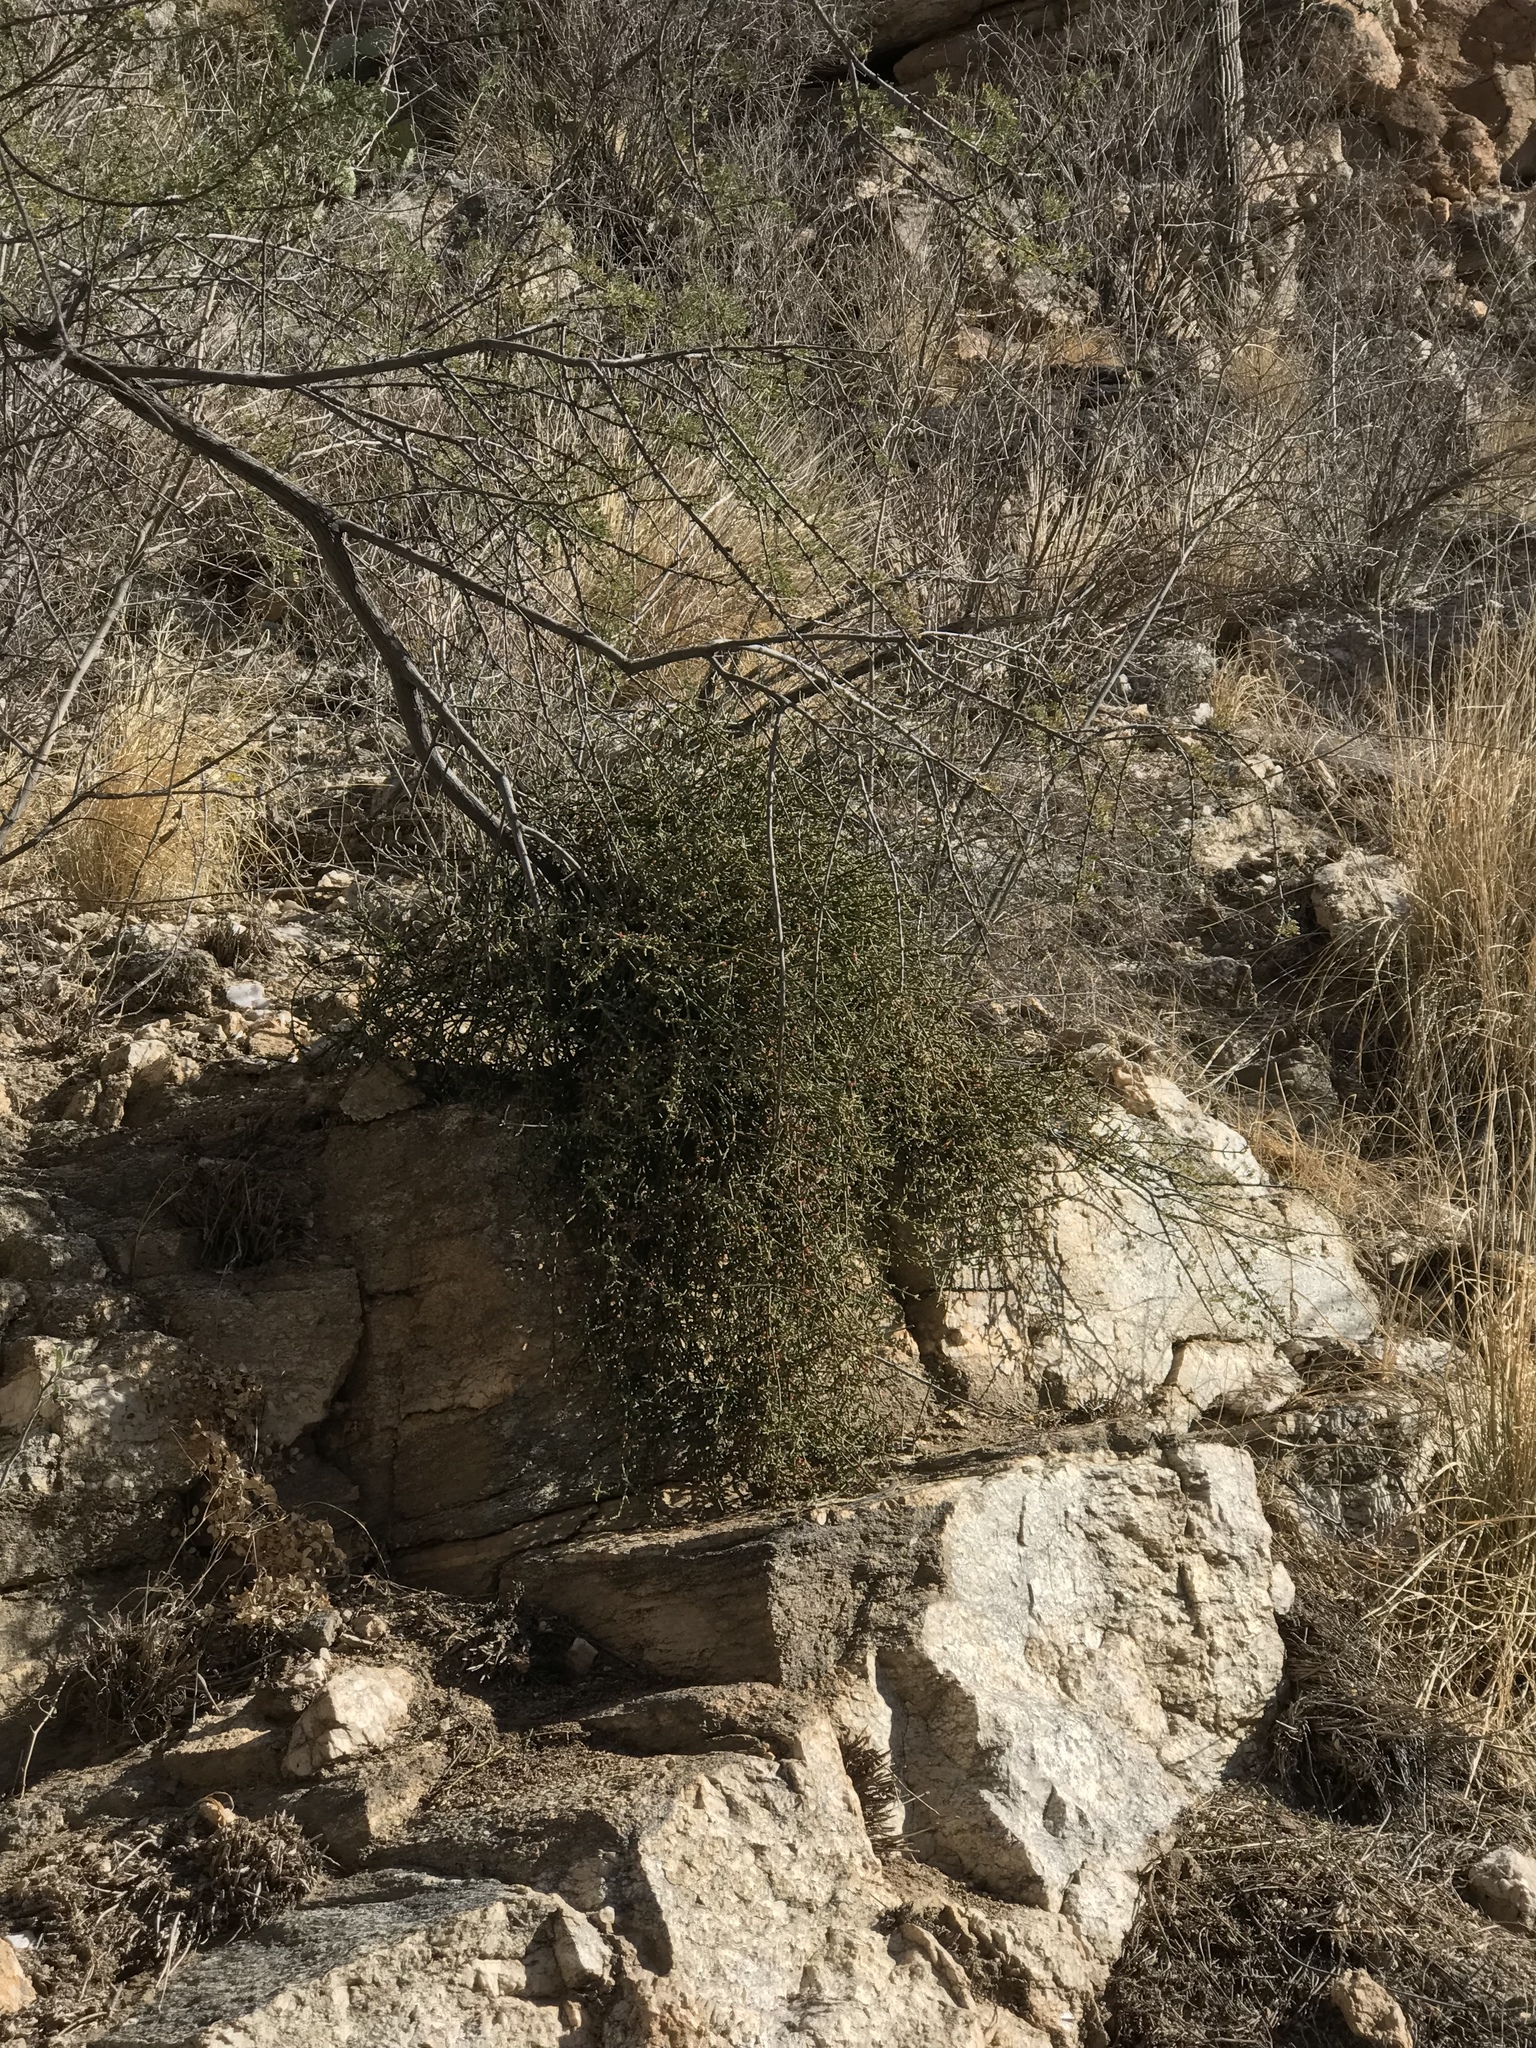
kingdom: Plantae
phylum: Tracheophyta
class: Magnoliopsida
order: Santalales
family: Viscaceae
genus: Phoradendron
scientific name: Phoradendron californicum
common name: Acacia mistletoe
